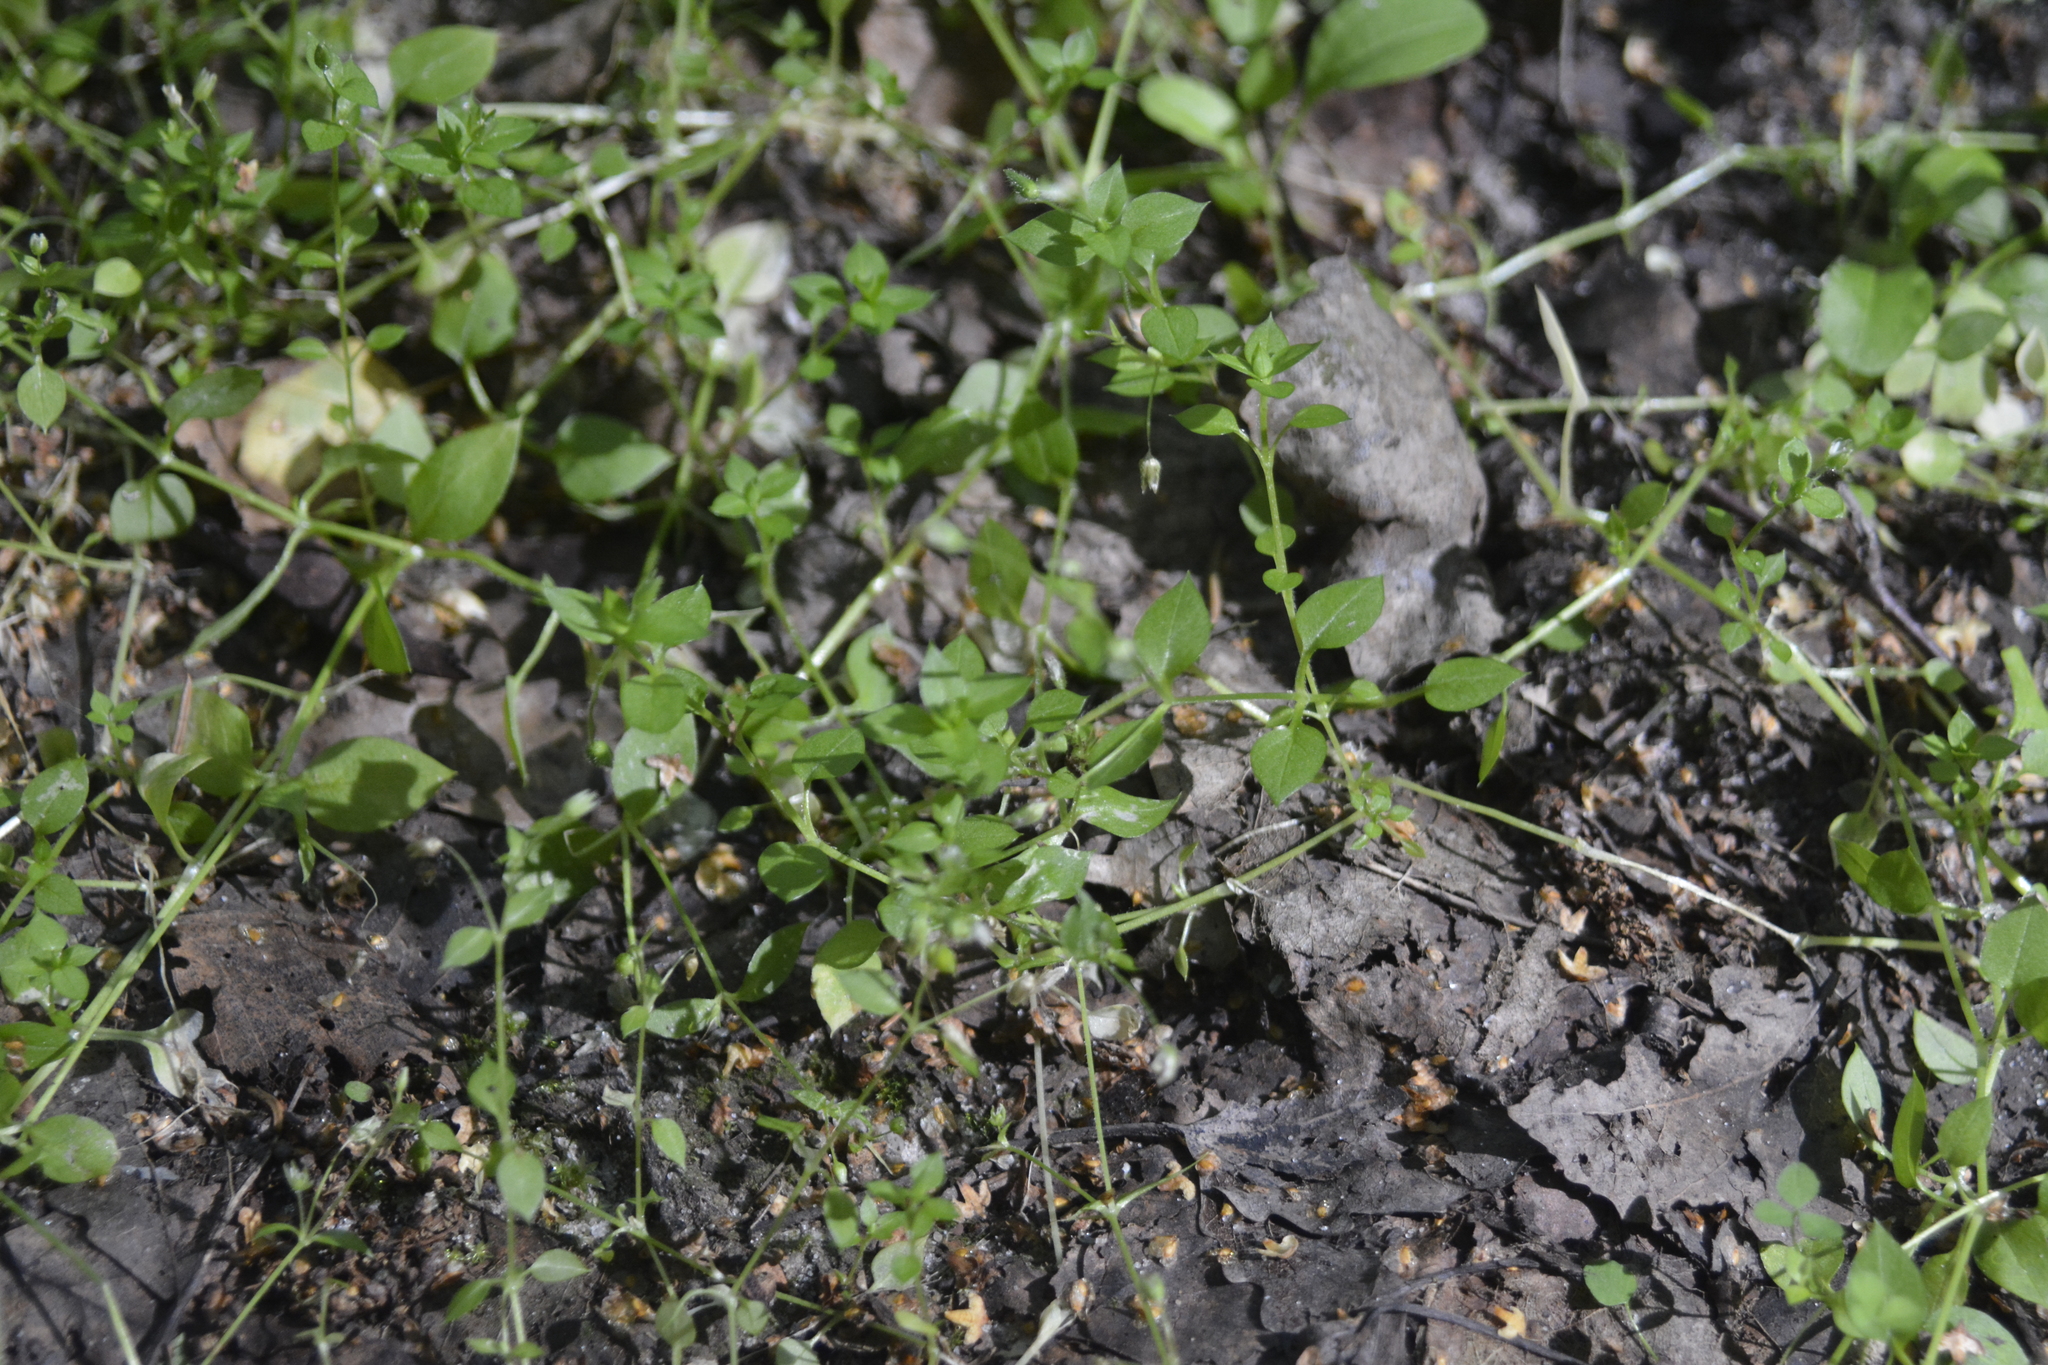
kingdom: Plantae
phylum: Tracheophyta
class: Magnoliopsida
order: Caryophyllales
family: Caryophyllaceae
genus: Stellaria
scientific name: Stellaria media
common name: Common chickweed
